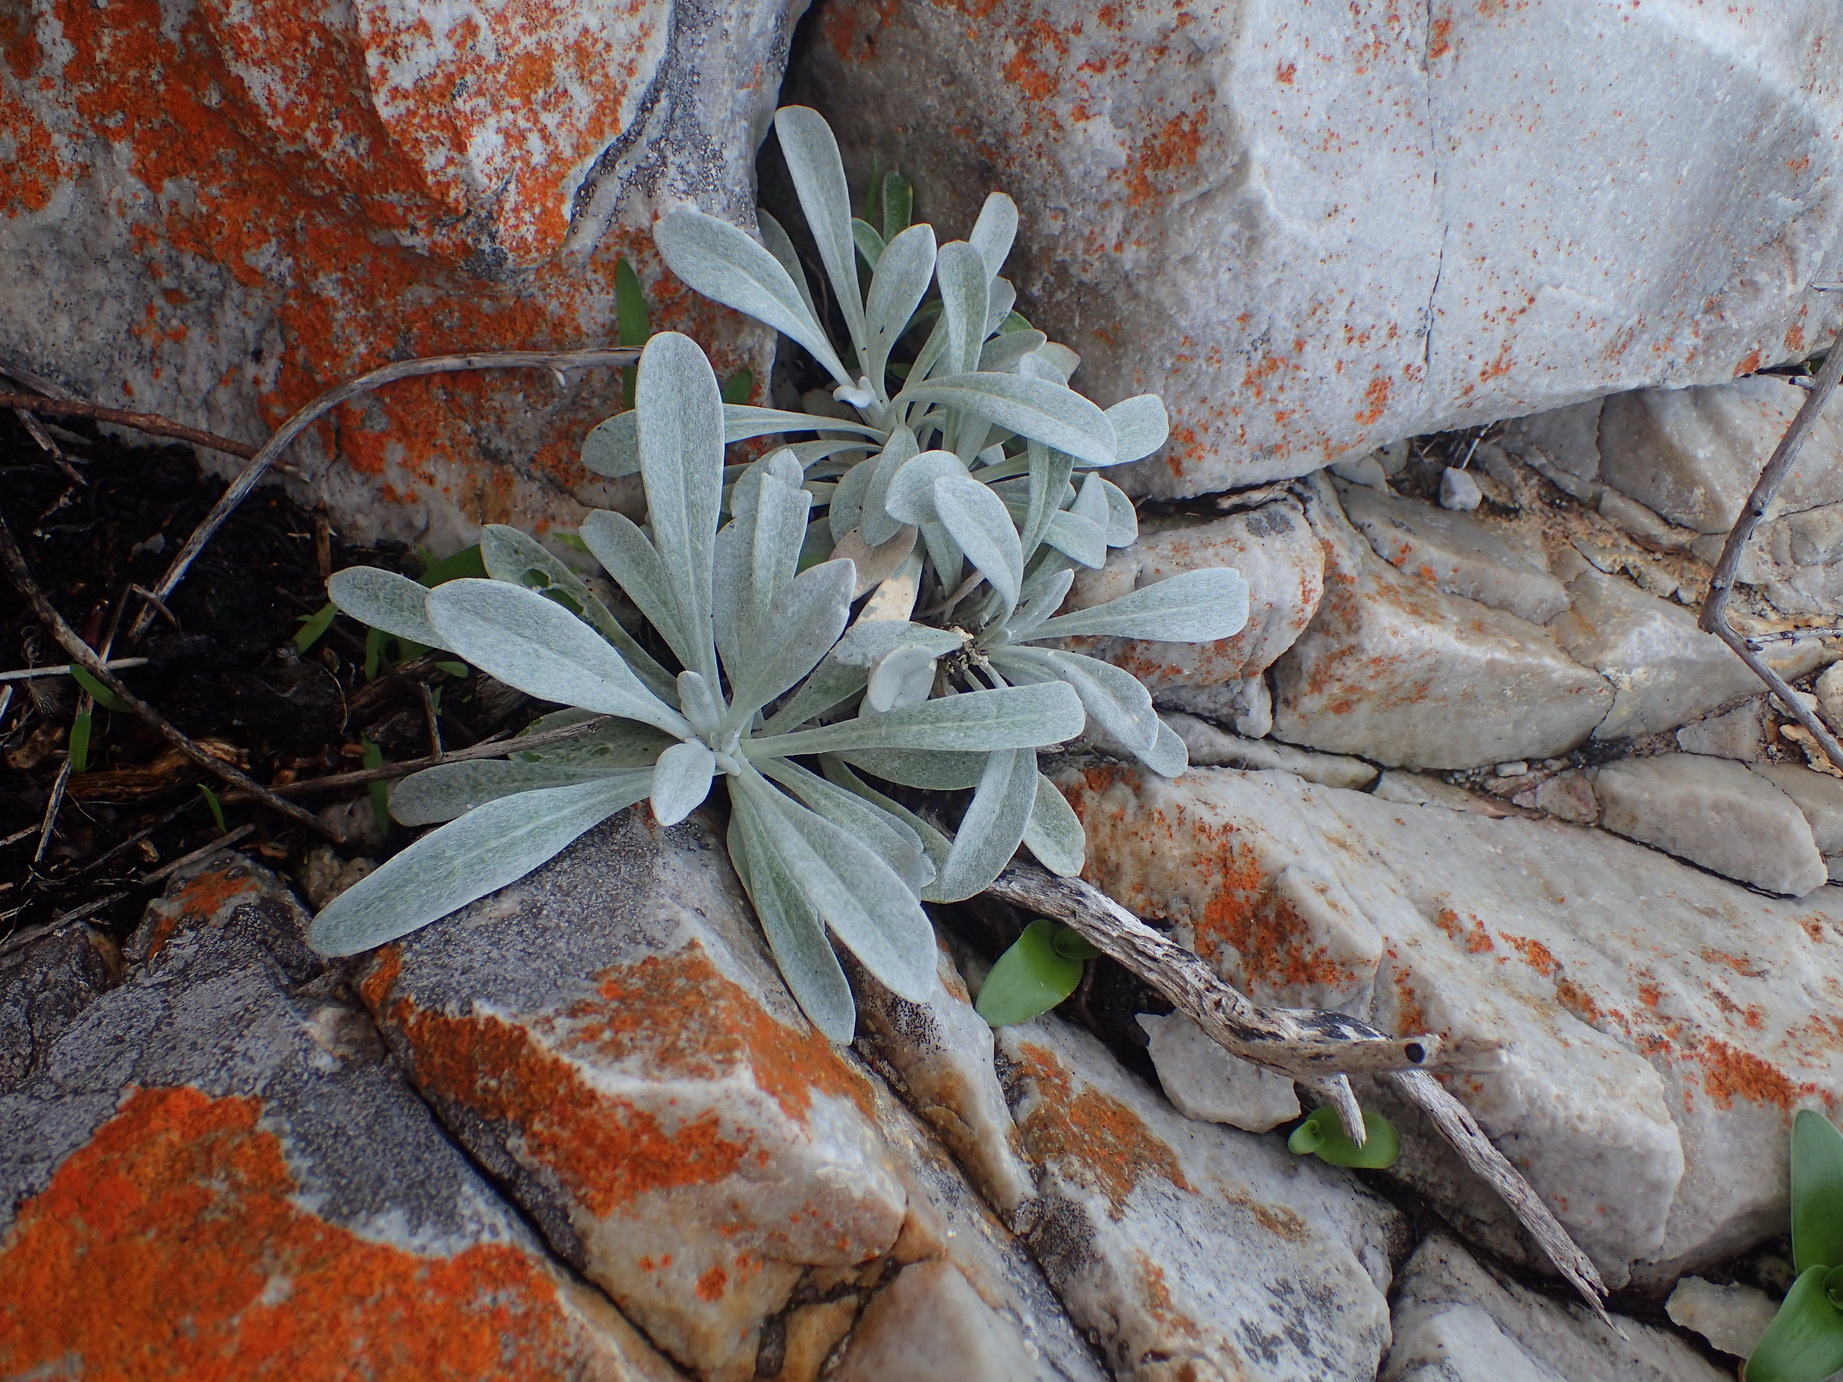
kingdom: Plantae
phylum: Tracheophyta
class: Magnoliopsida
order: Asterales
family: Asteraceae
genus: Gazania
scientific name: Gazania rigens
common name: Treasureflower
